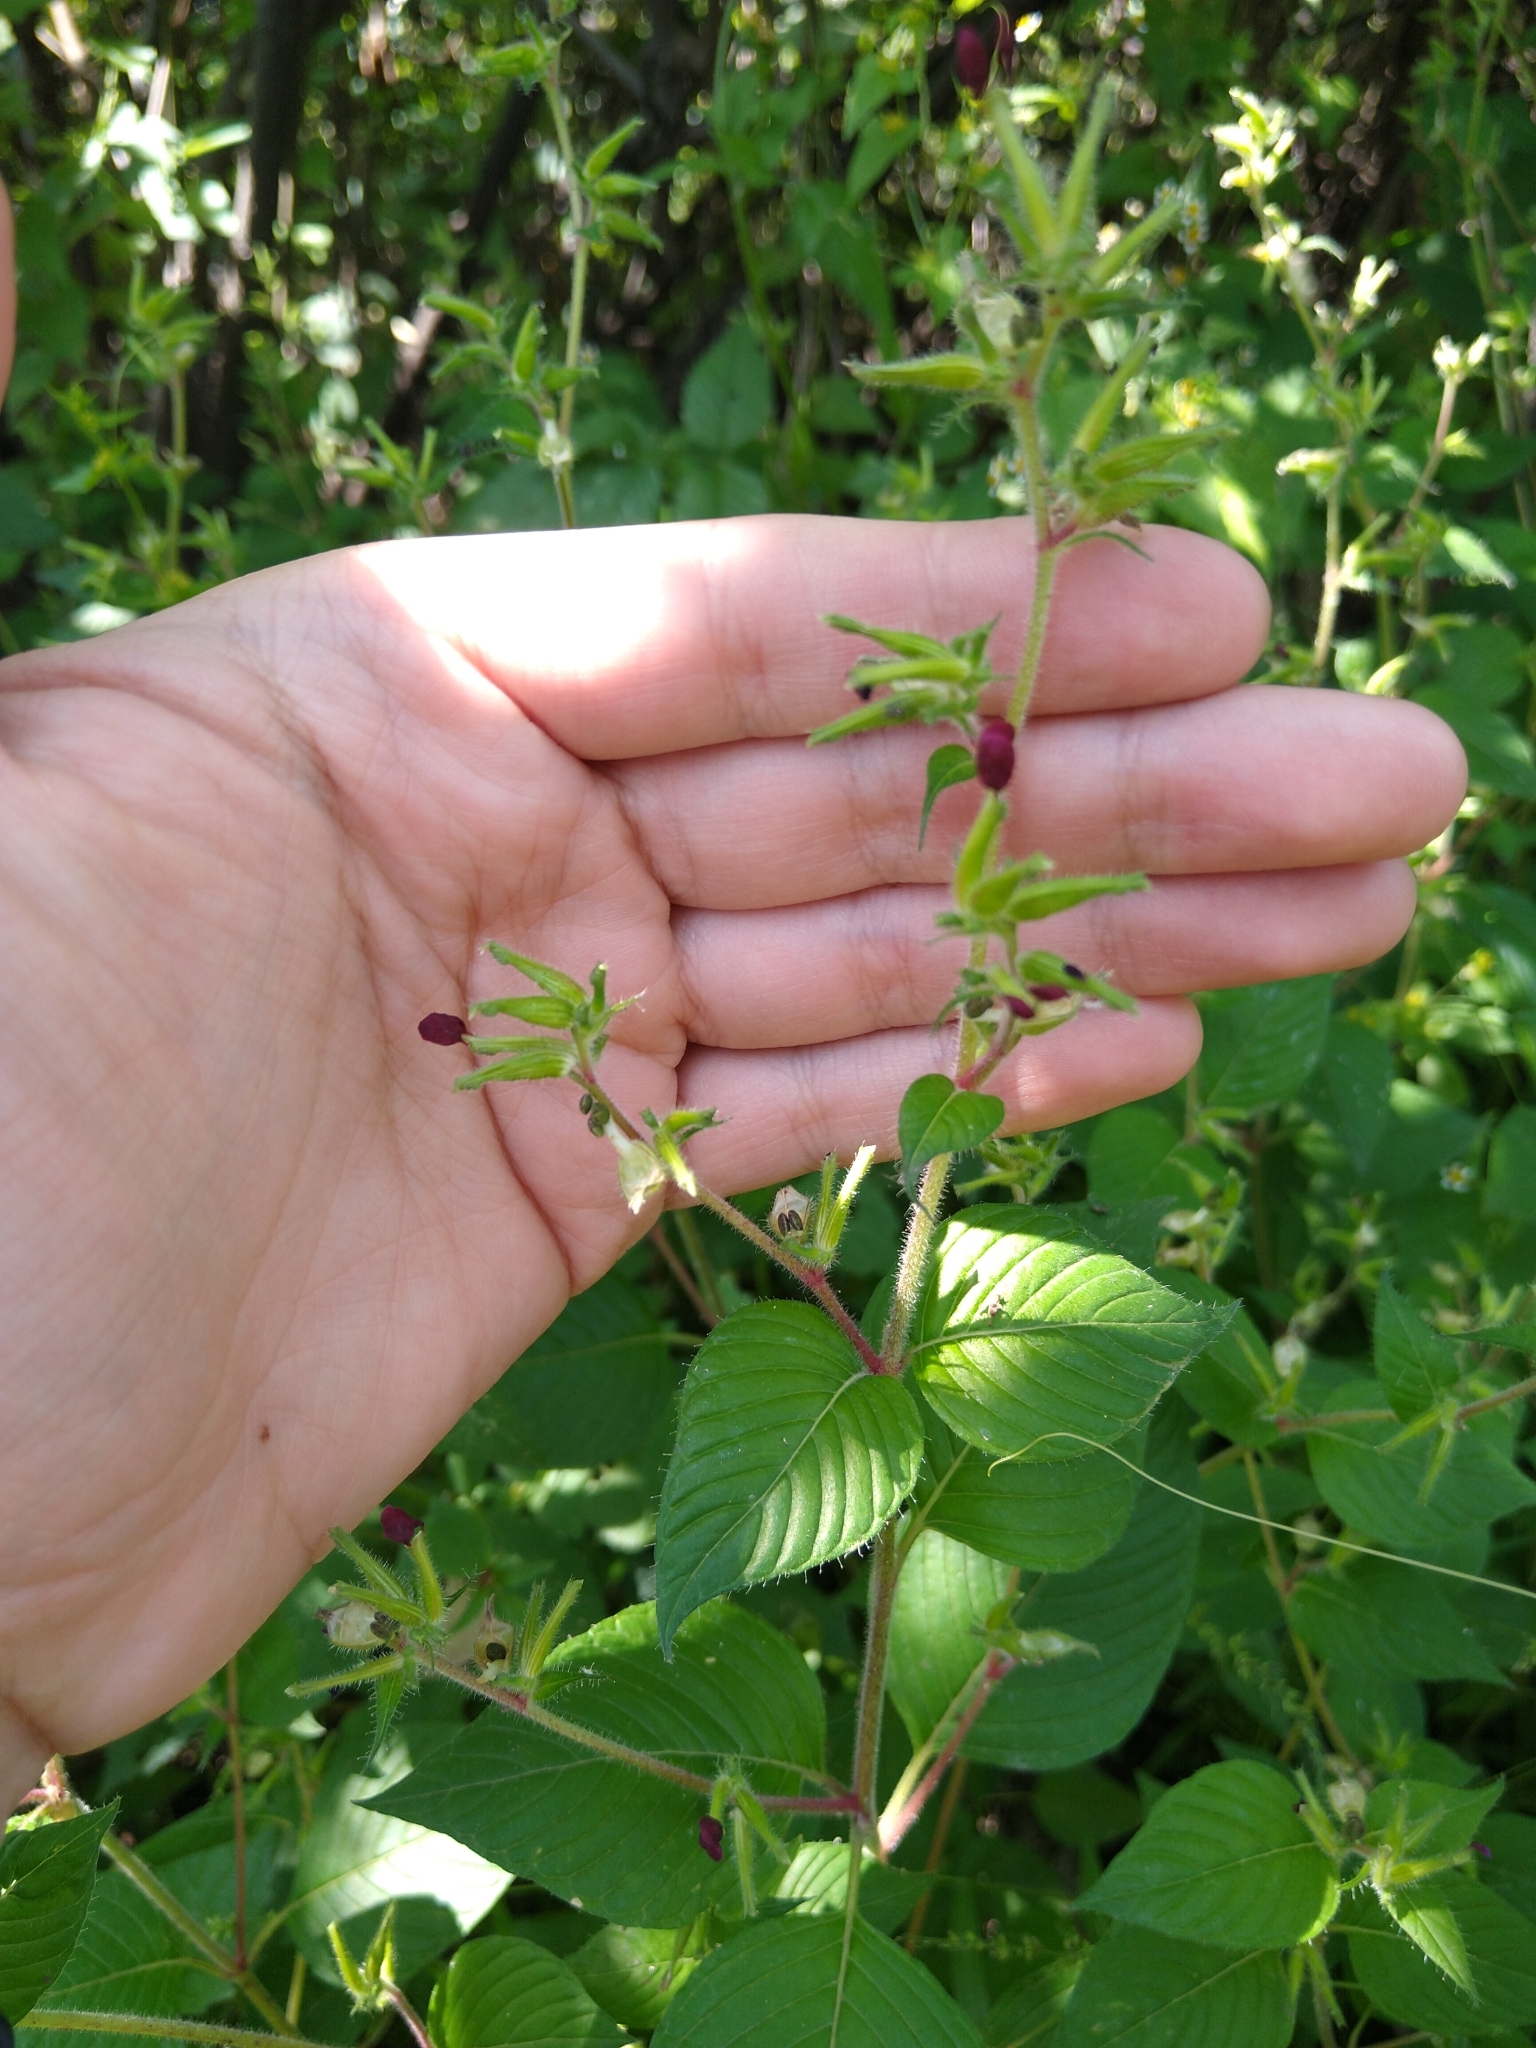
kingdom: Plantae
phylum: Tracheophyta
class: Magnoliopsida
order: Myrtales
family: Lythraceae
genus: Cuphea
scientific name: Cuphea paucipetala
